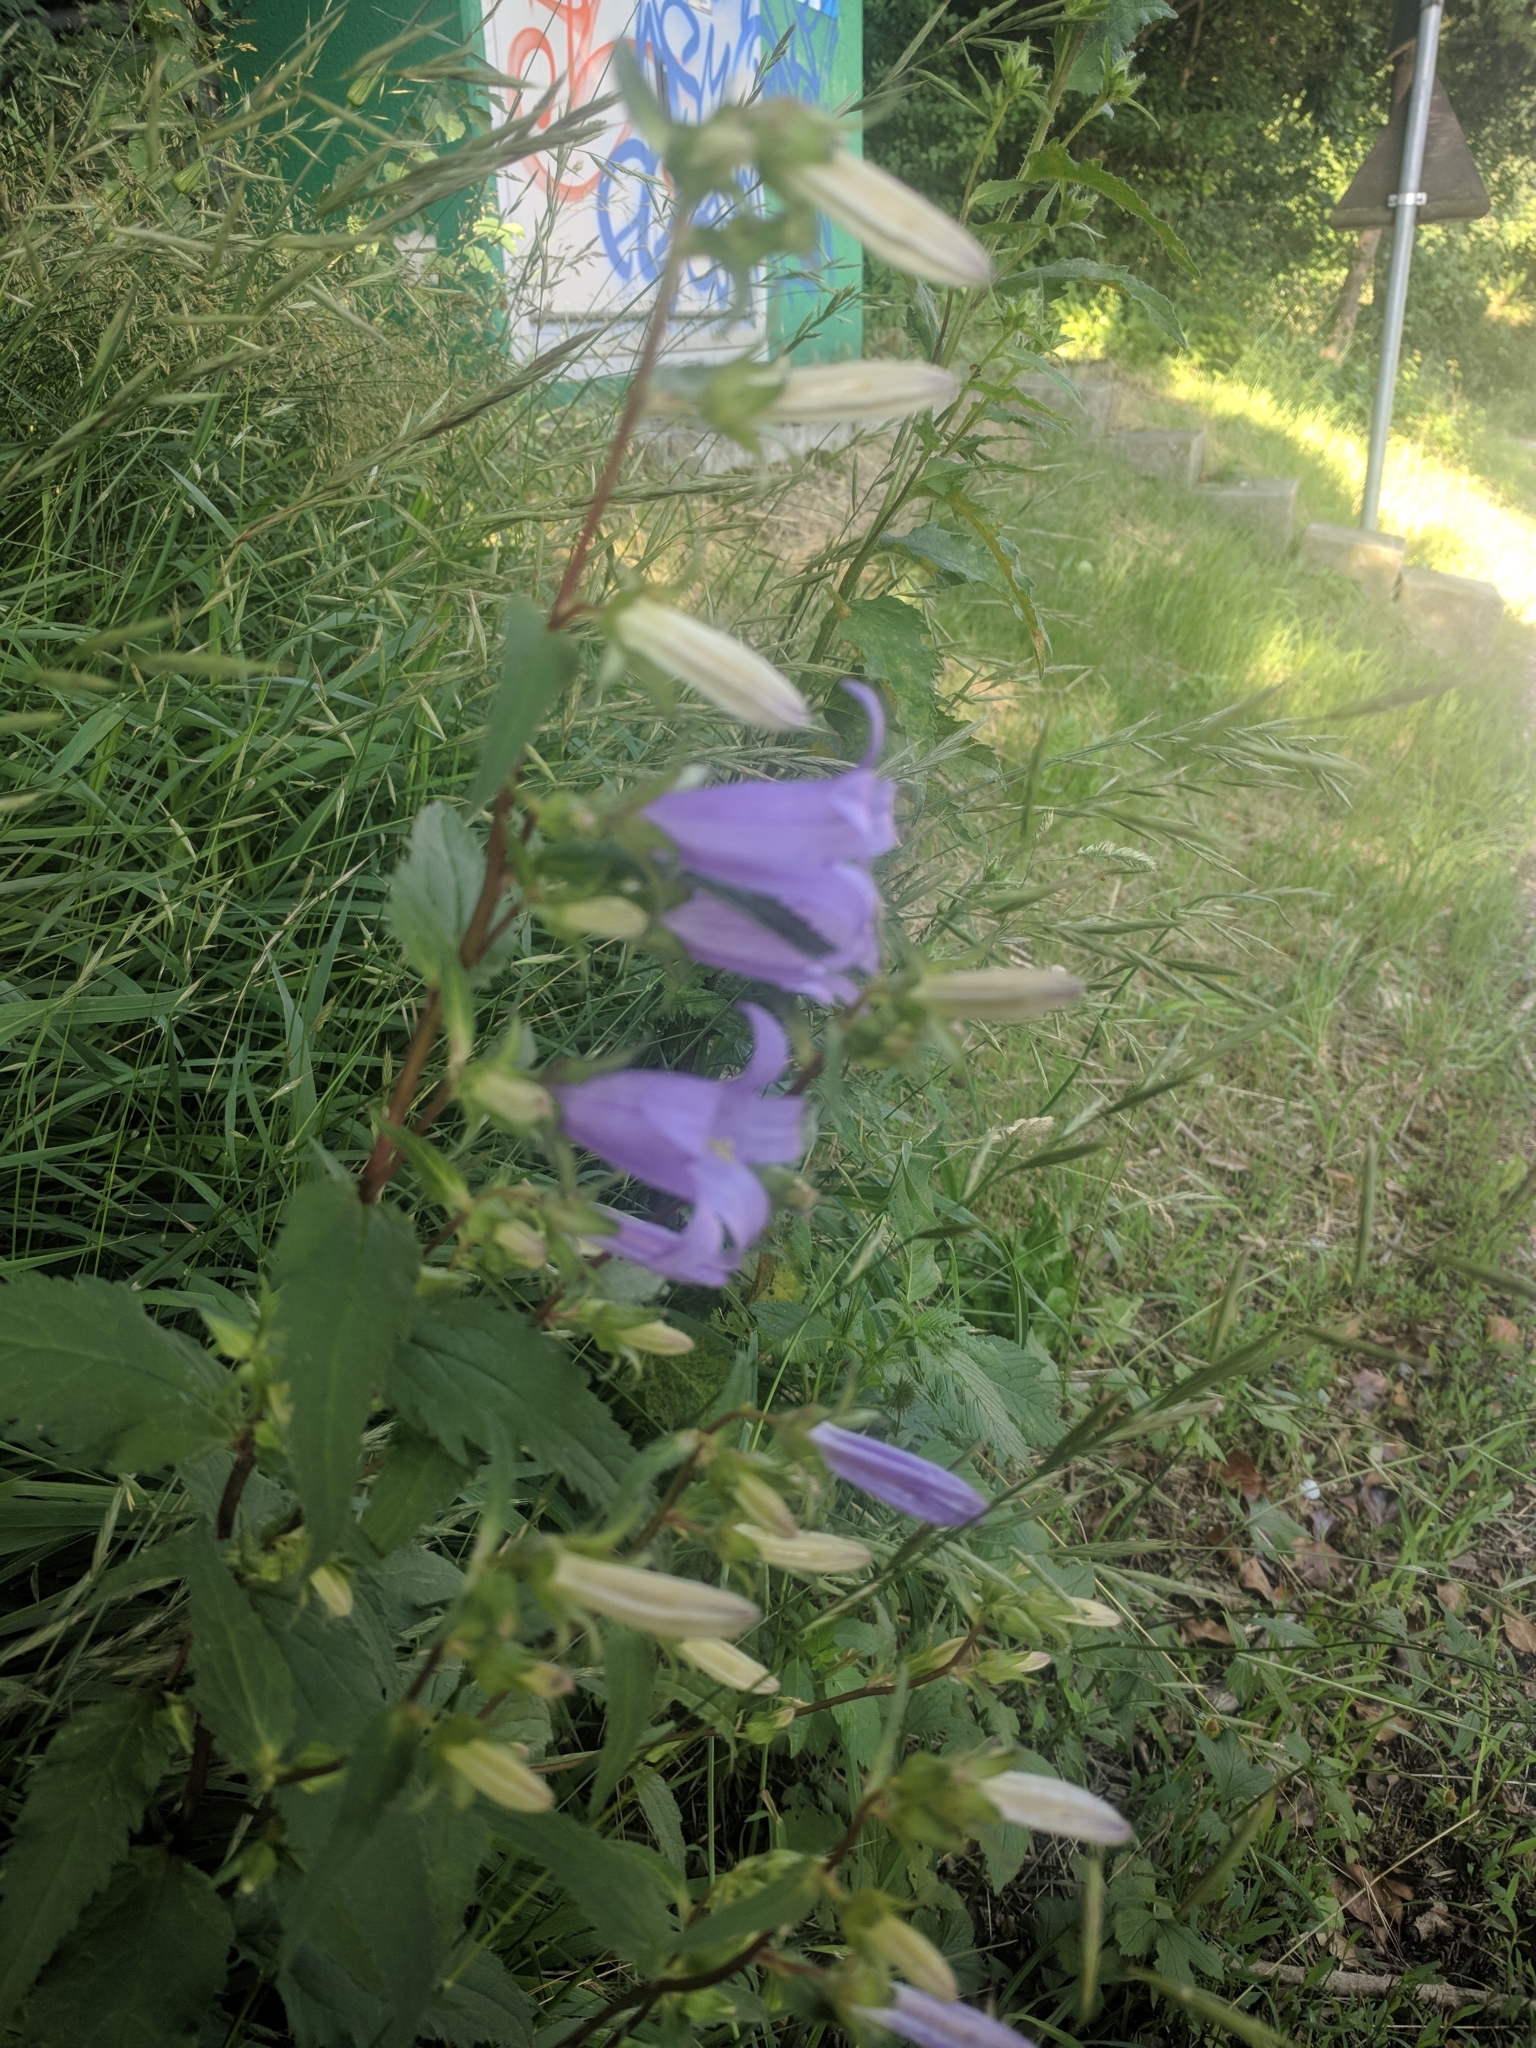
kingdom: Plantae
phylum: Tracheophyta
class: Magnoliopsida
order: Asterales
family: Campanulaceae
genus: Campanula
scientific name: Campanula trachelium
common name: Nettle-leaved bellflower
